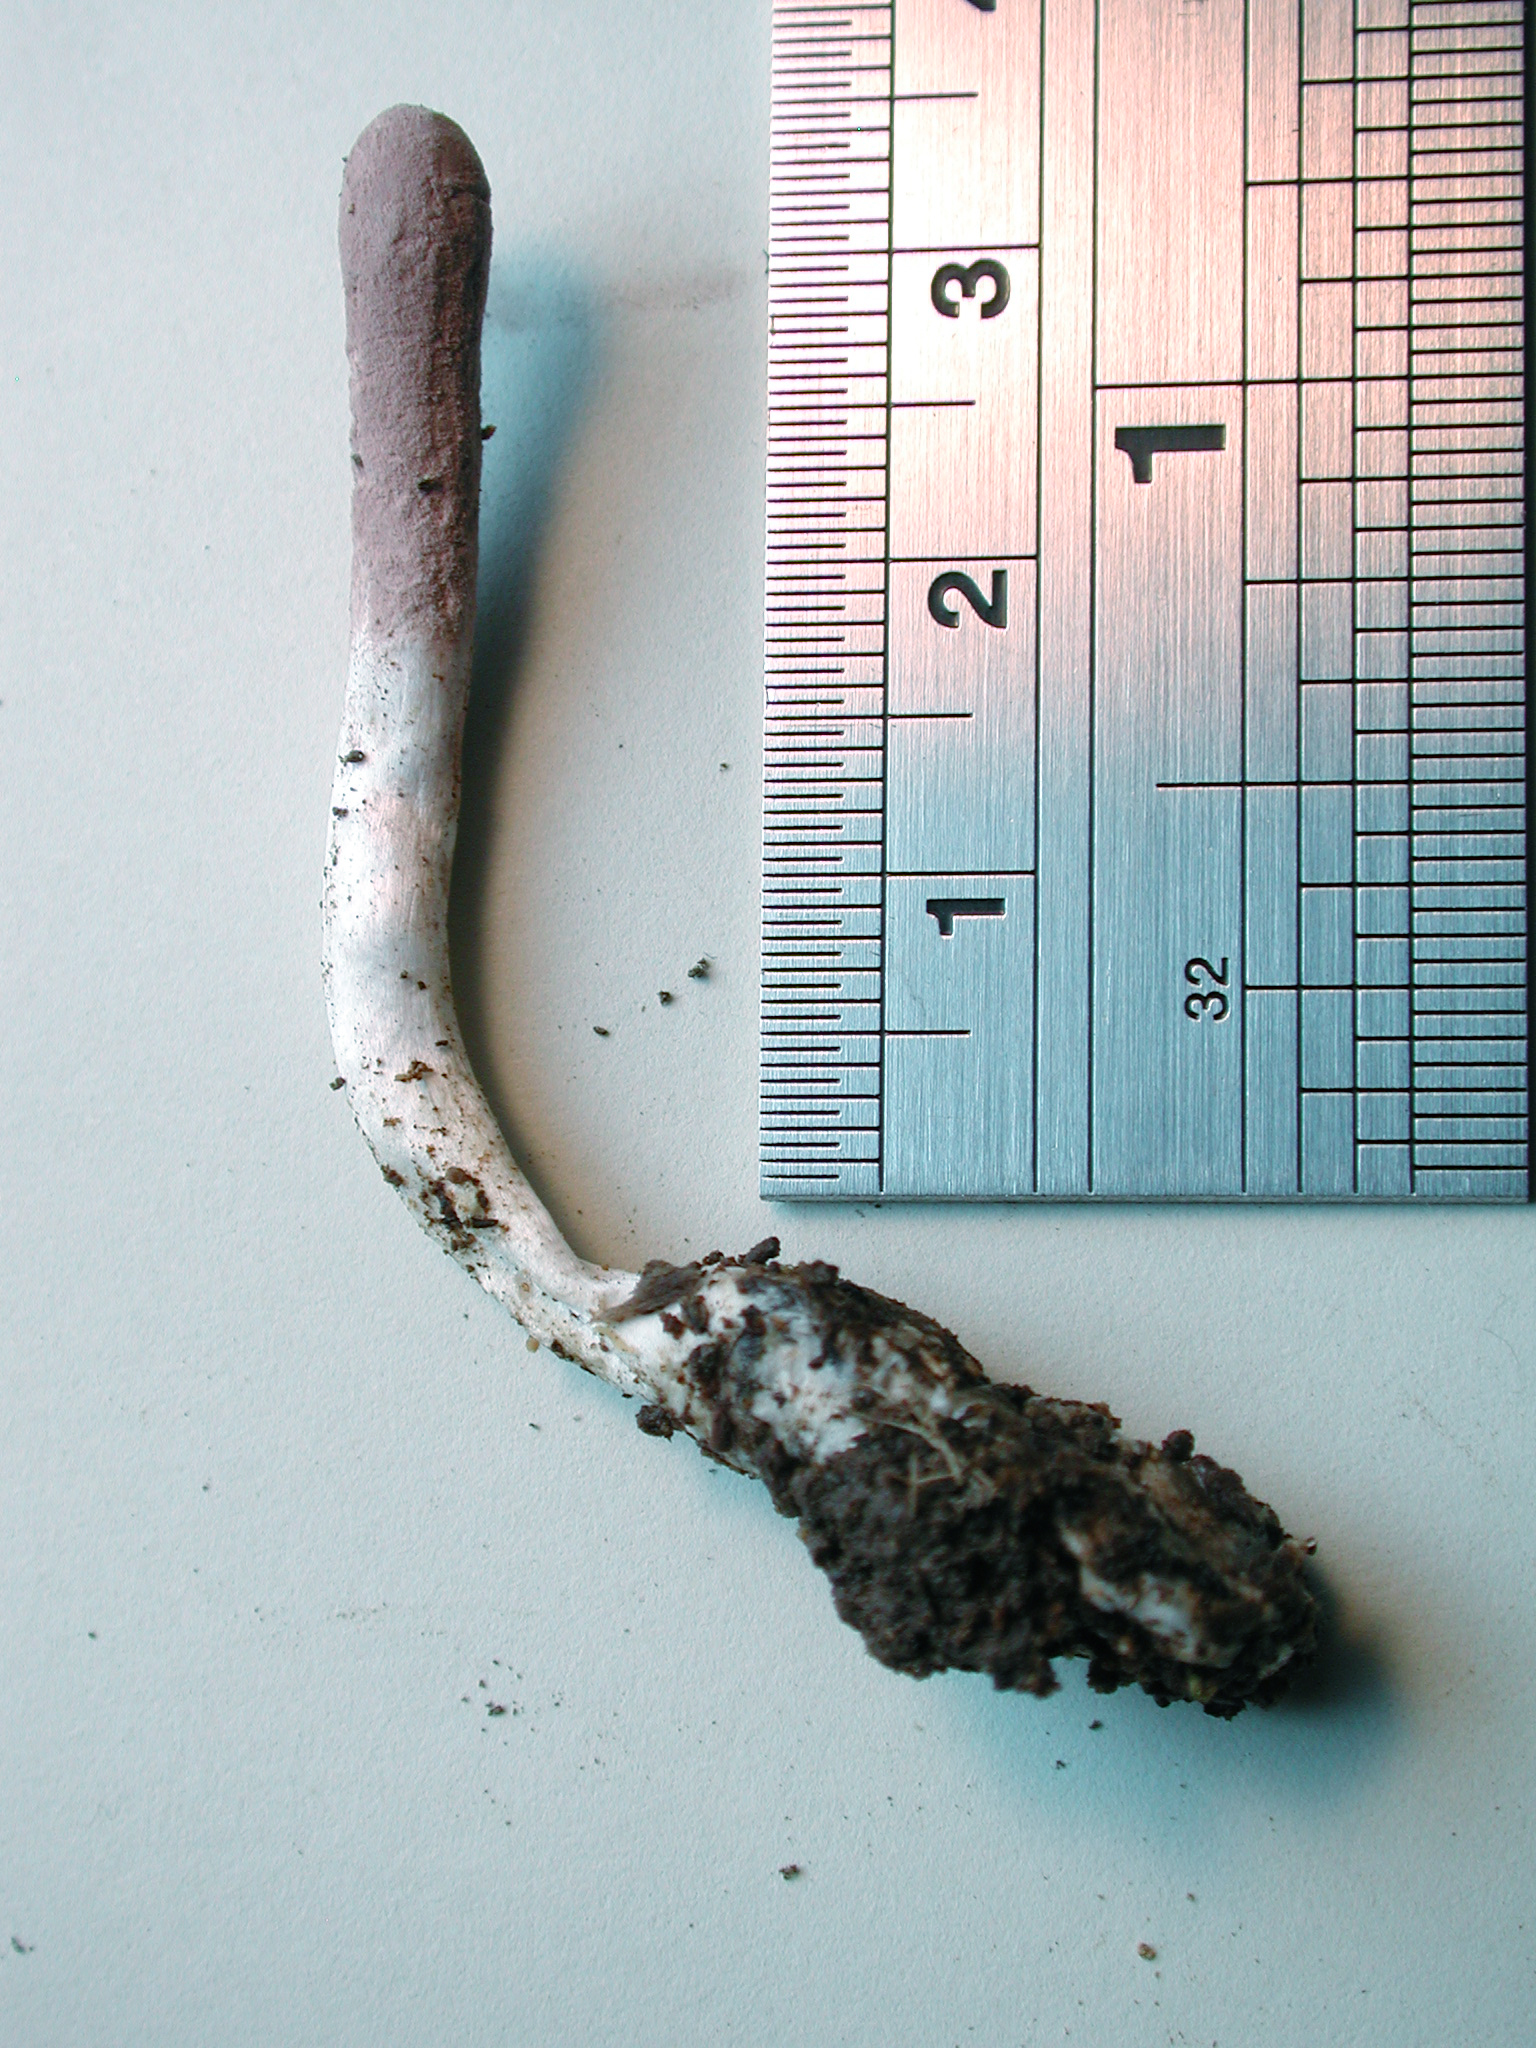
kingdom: Fungi
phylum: Ascomycota
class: Sordariomycetes
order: Hypocreales
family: Ophiocordycipitaceae
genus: Purpureocillium
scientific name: Purpureocillium atypicola
